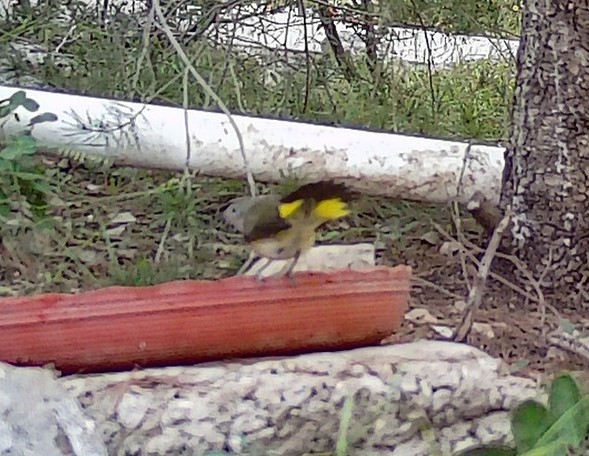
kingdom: Animalia
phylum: Chordata
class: Aves
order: Passeriformes
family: Parulidae
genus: Setophaga
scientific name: Setophaga ruticilla
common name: American redstart
